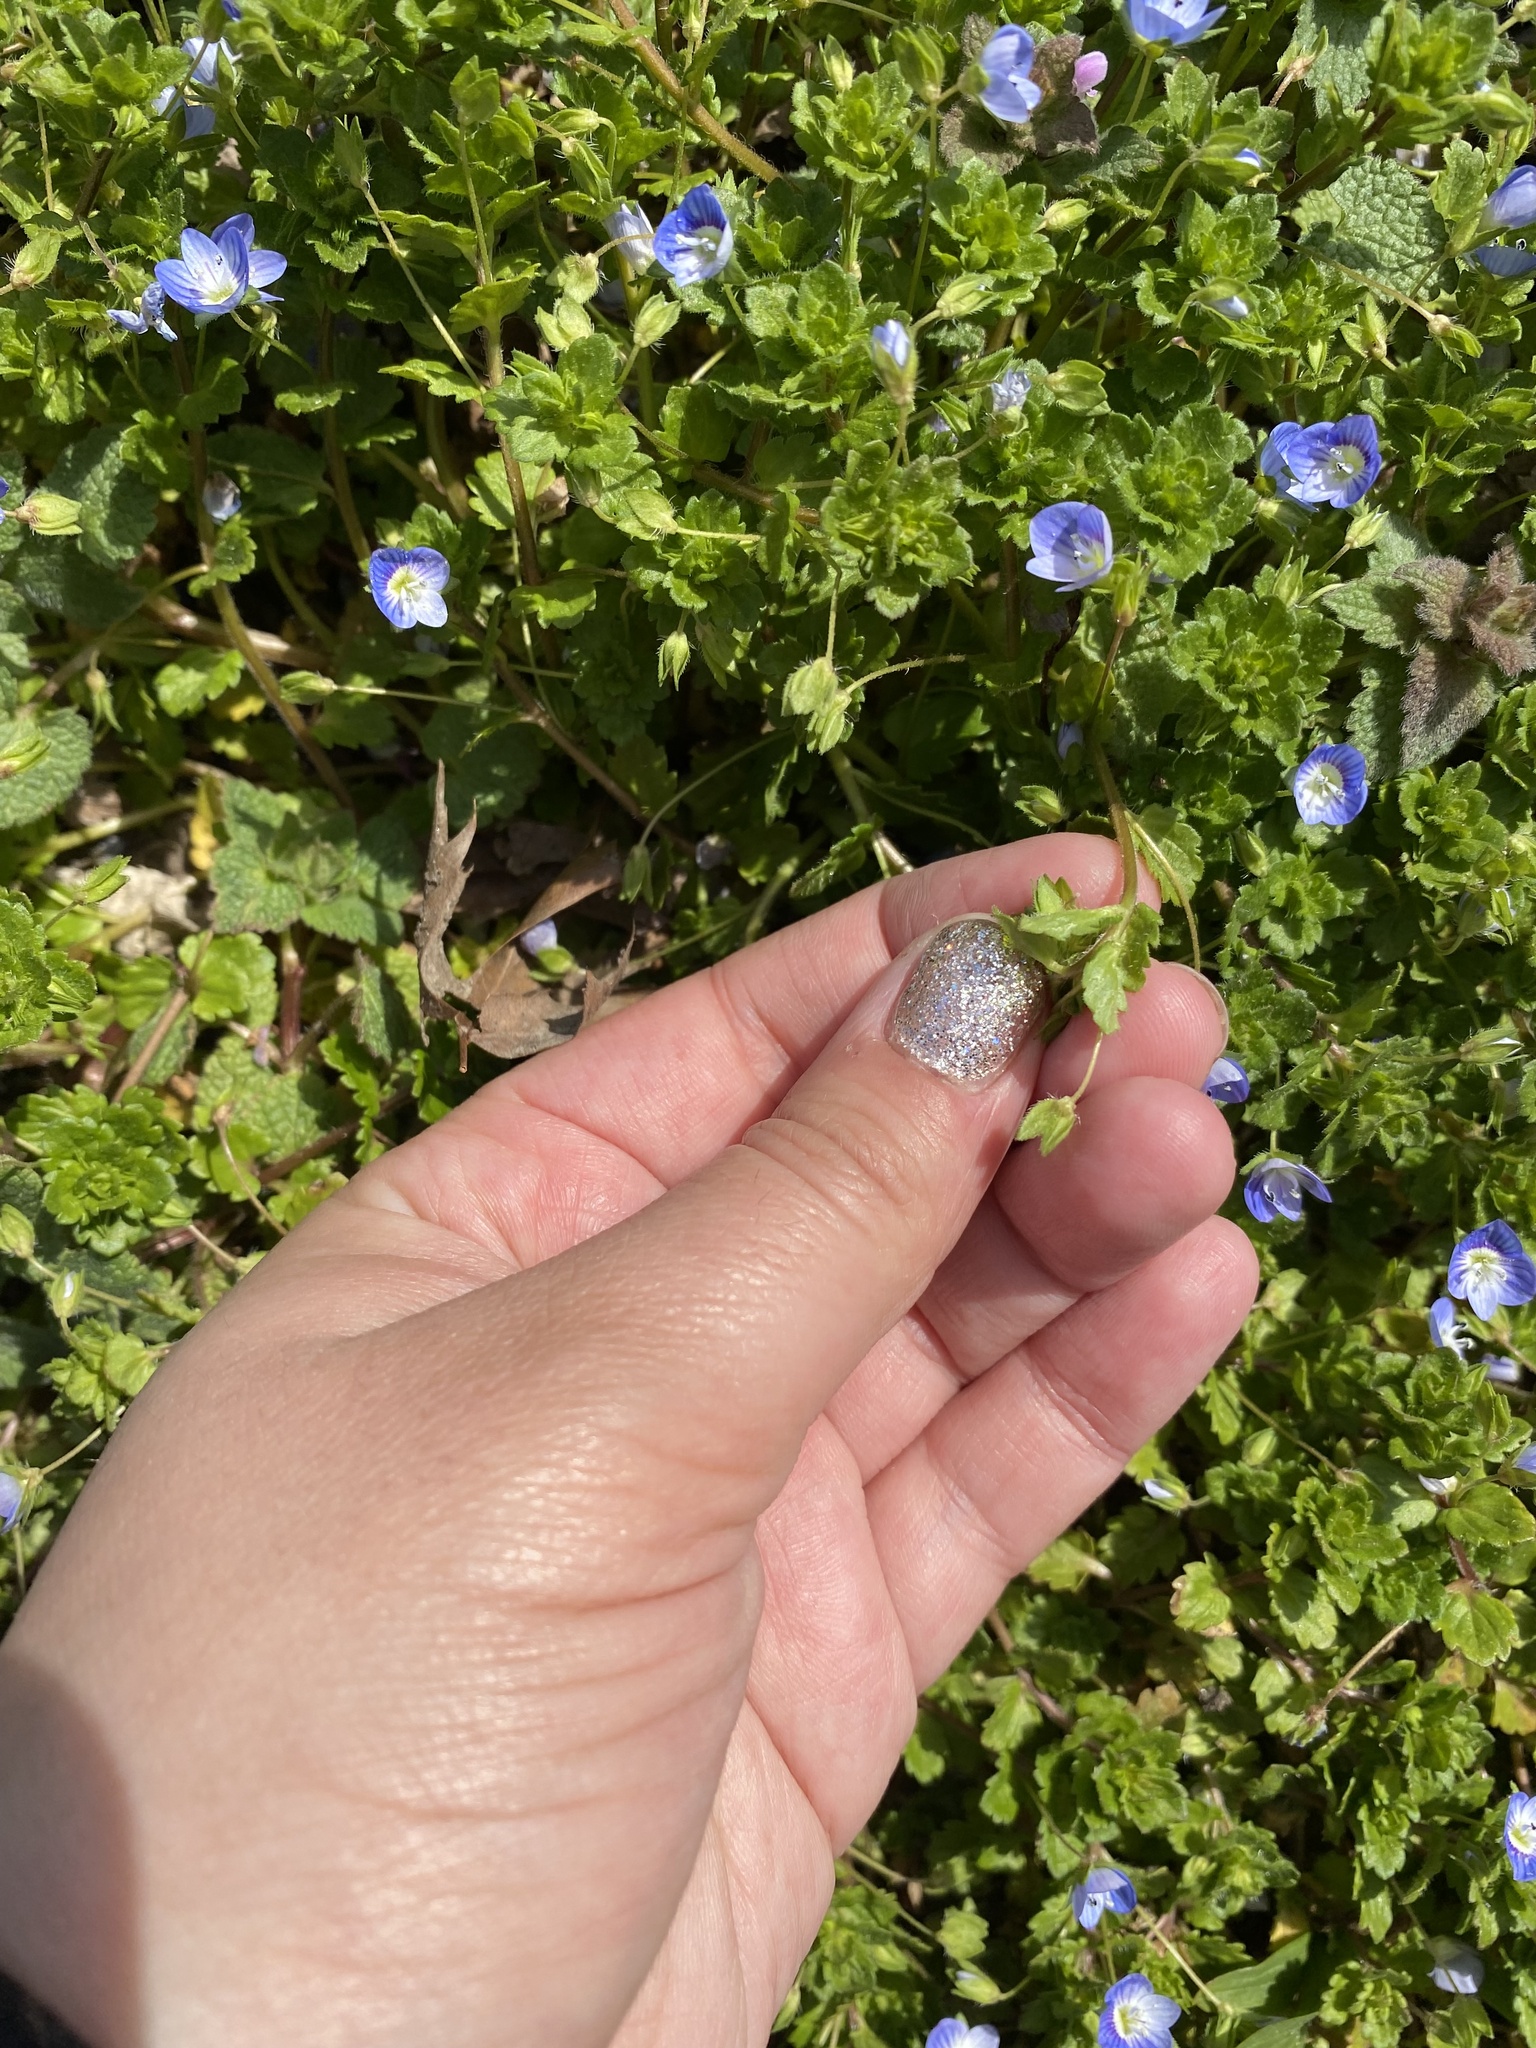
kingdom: Plantae
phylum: Tracheophyta
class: Magnoliopsida
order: Lamiales
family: Plantaginaceae
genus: Veronica
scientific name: Veronica persica
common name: Common field-speedwell
